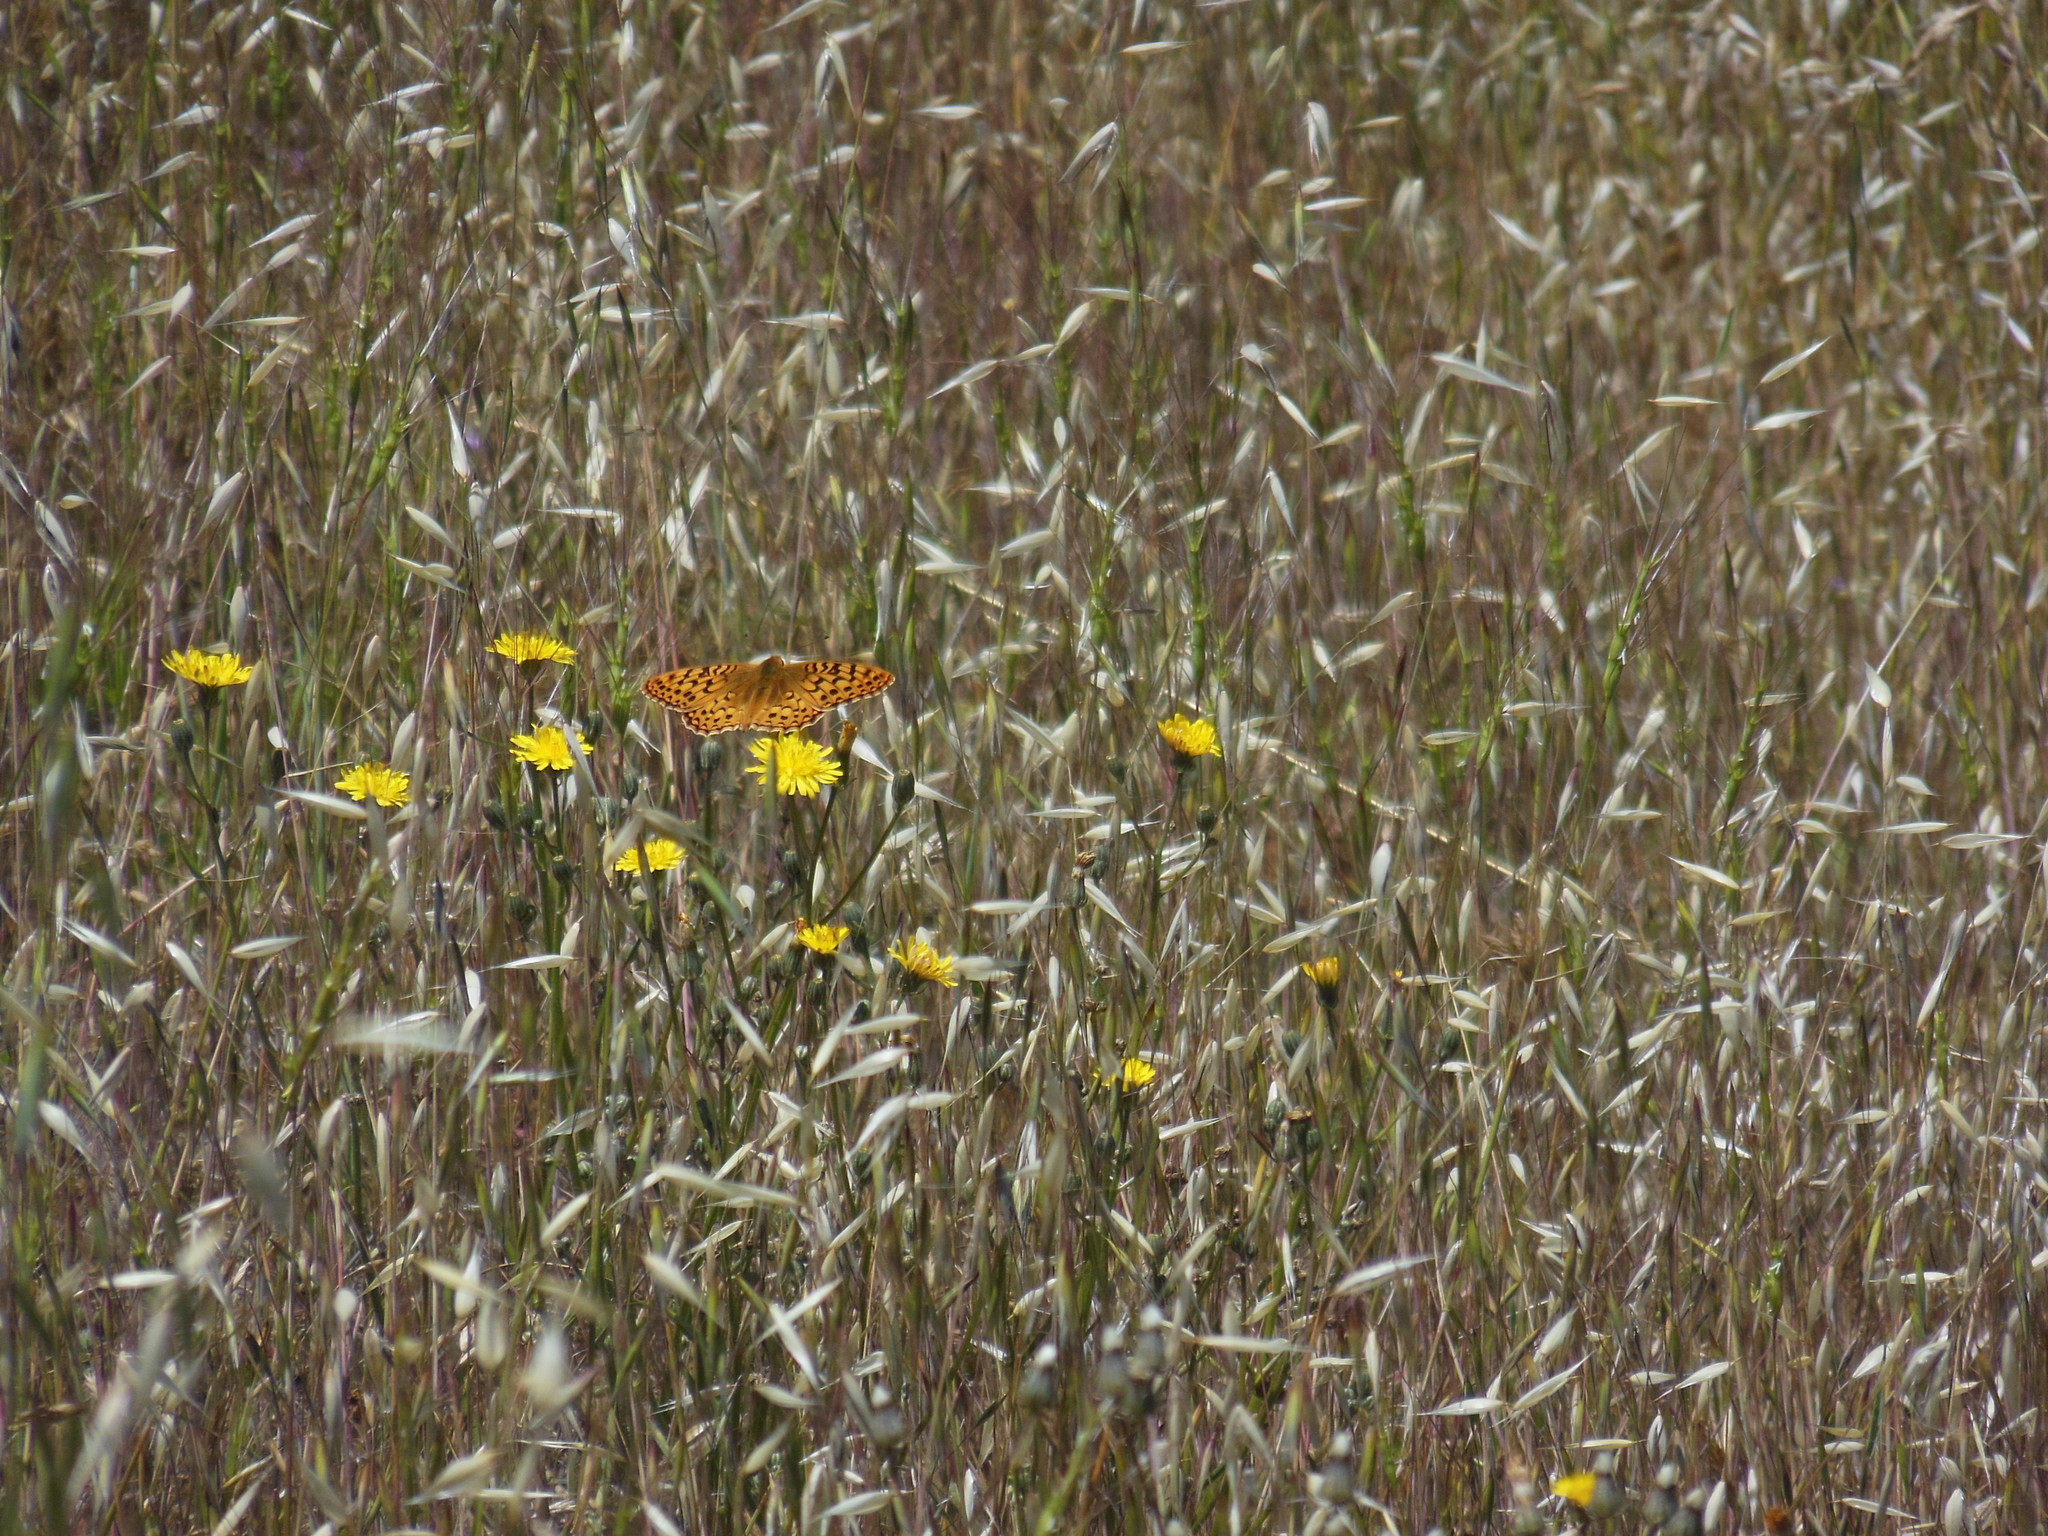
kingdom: Animalia
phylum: Arthropoda
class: Insecta
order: Lepidoptera
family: Nymphalidae
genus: Argynnis
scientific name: Argynnis coronis
